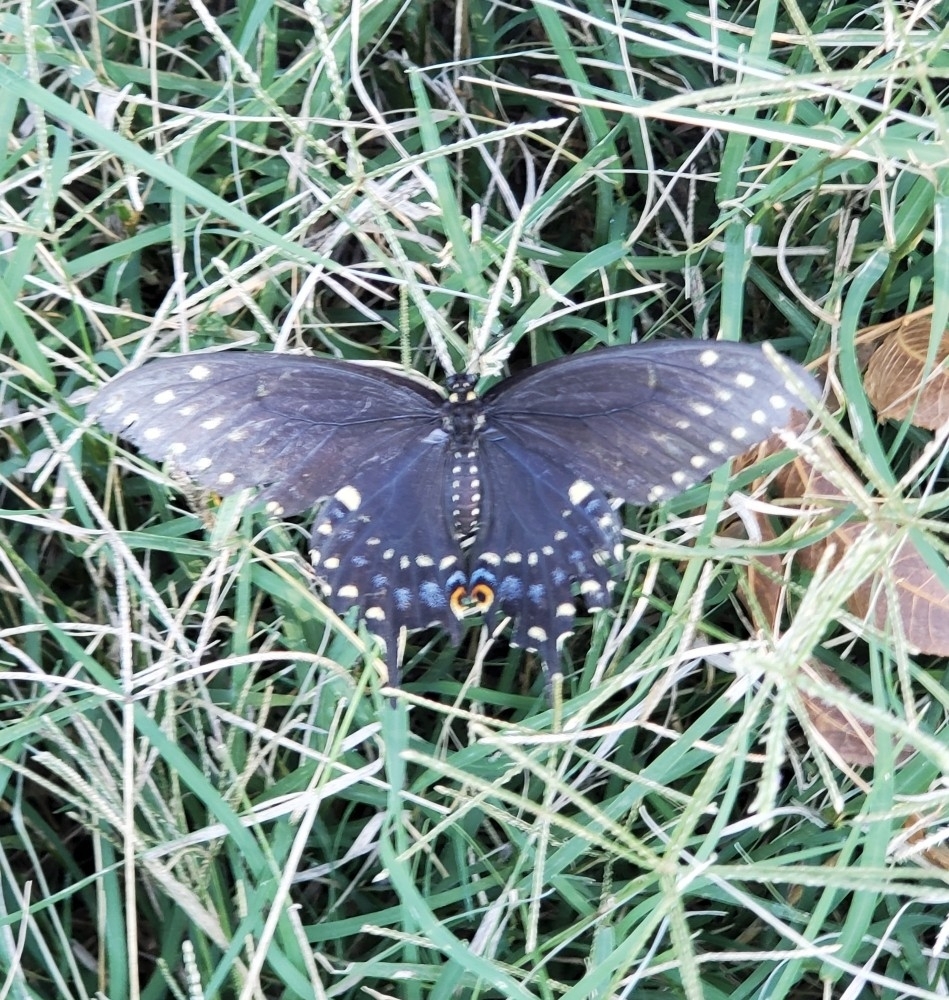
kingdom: Animalia
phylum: Arthropoda
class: Insecta
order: Lepidoptera
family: Papilionidae
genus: Papilio
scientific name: Papilio polyxenes
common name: Black swallowtail
